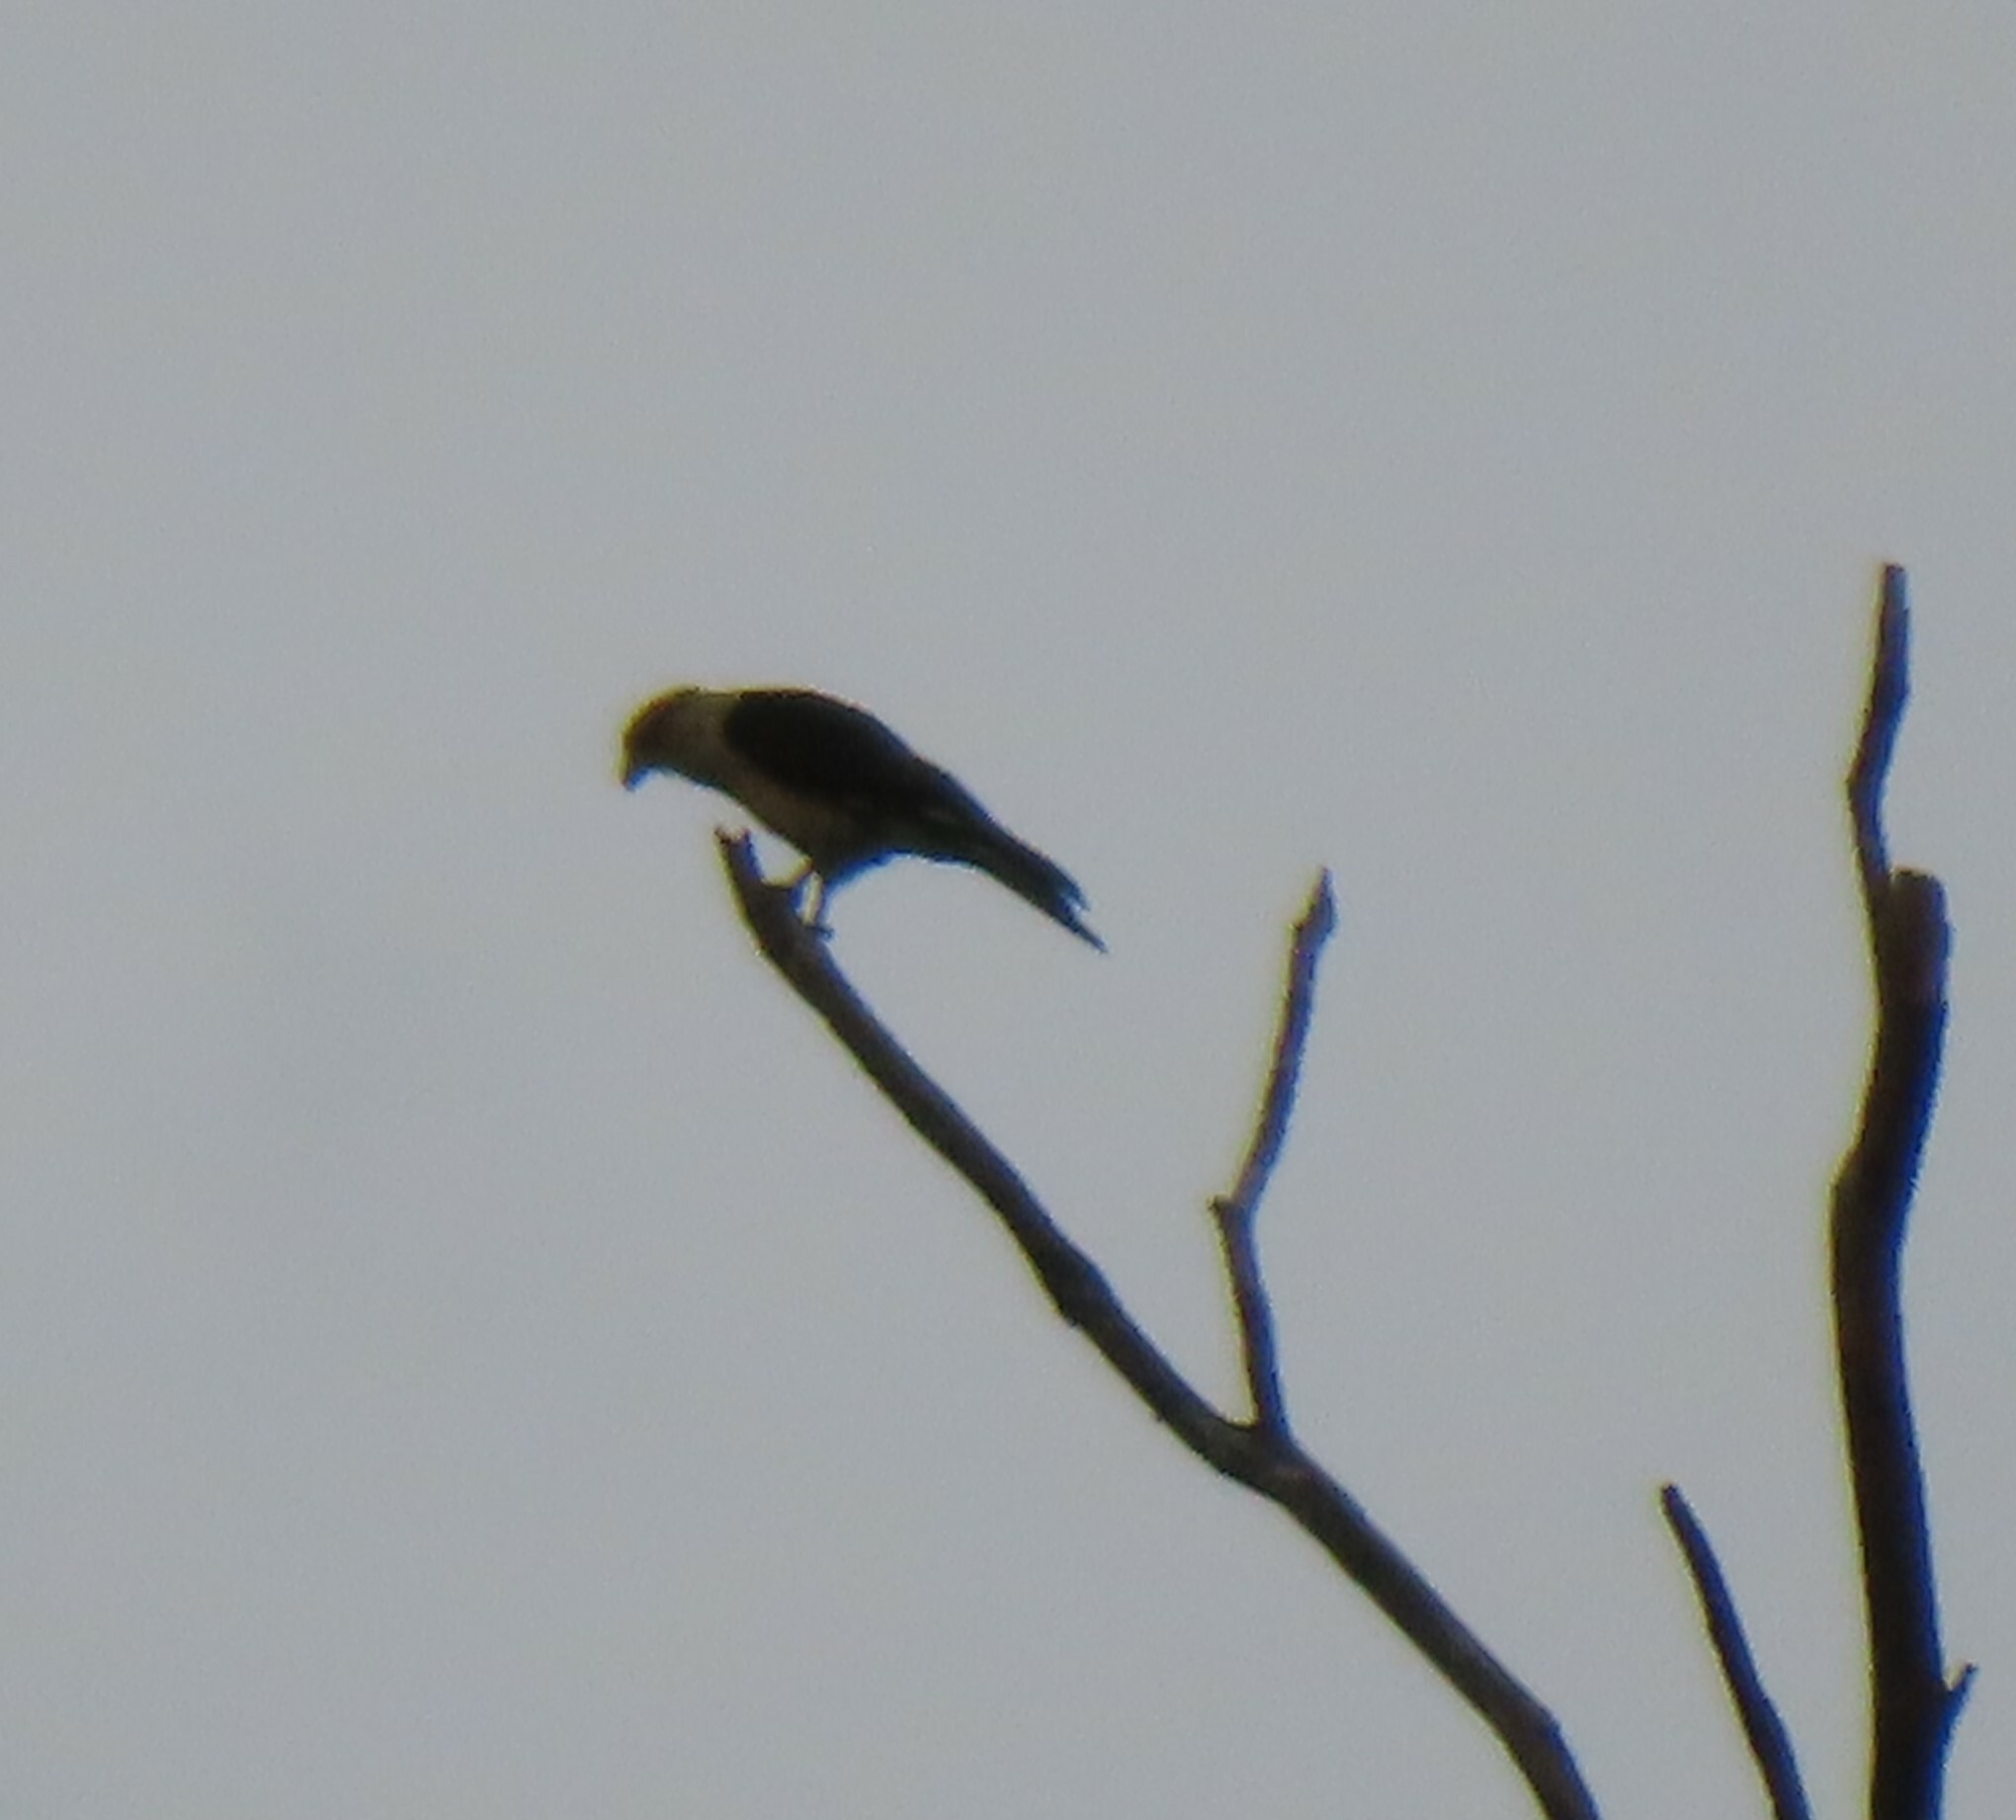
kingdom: Animalia
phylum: Chordata
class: Aves
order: Falconiformes
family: Falconidae
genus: Daptrius
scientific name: Daptrius
